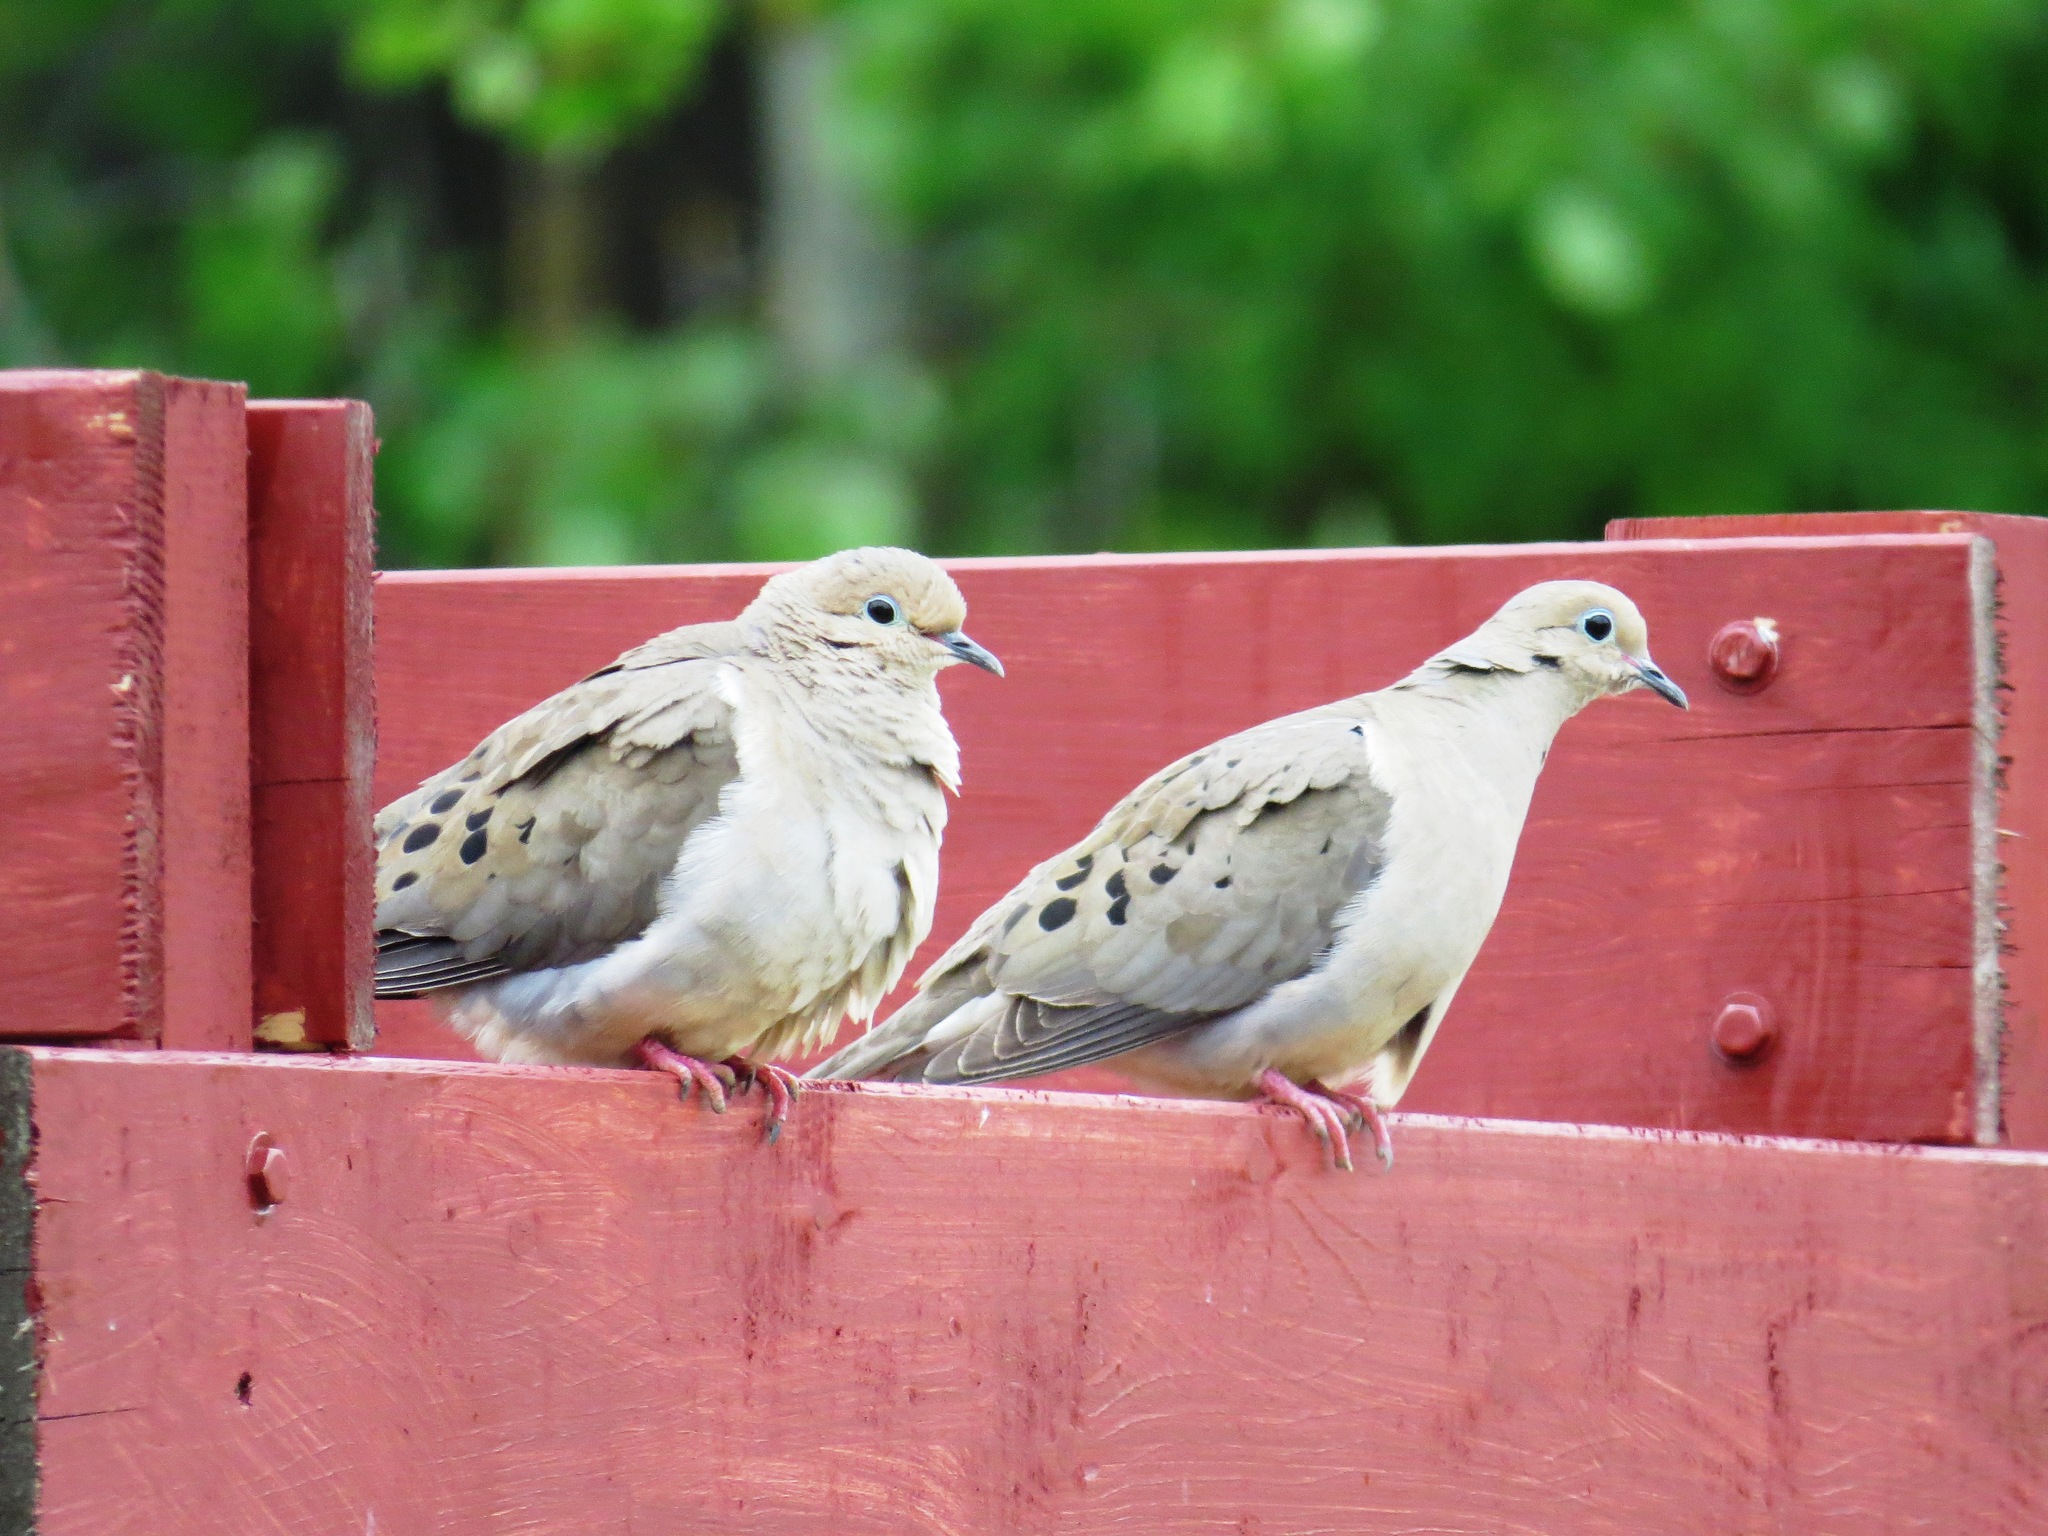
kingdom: Animalia
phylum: Chordata
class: Aves
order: Columbiformes
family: Columbidae
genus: Zenaida
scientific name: Zenaida macroura
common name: Mourning dove
